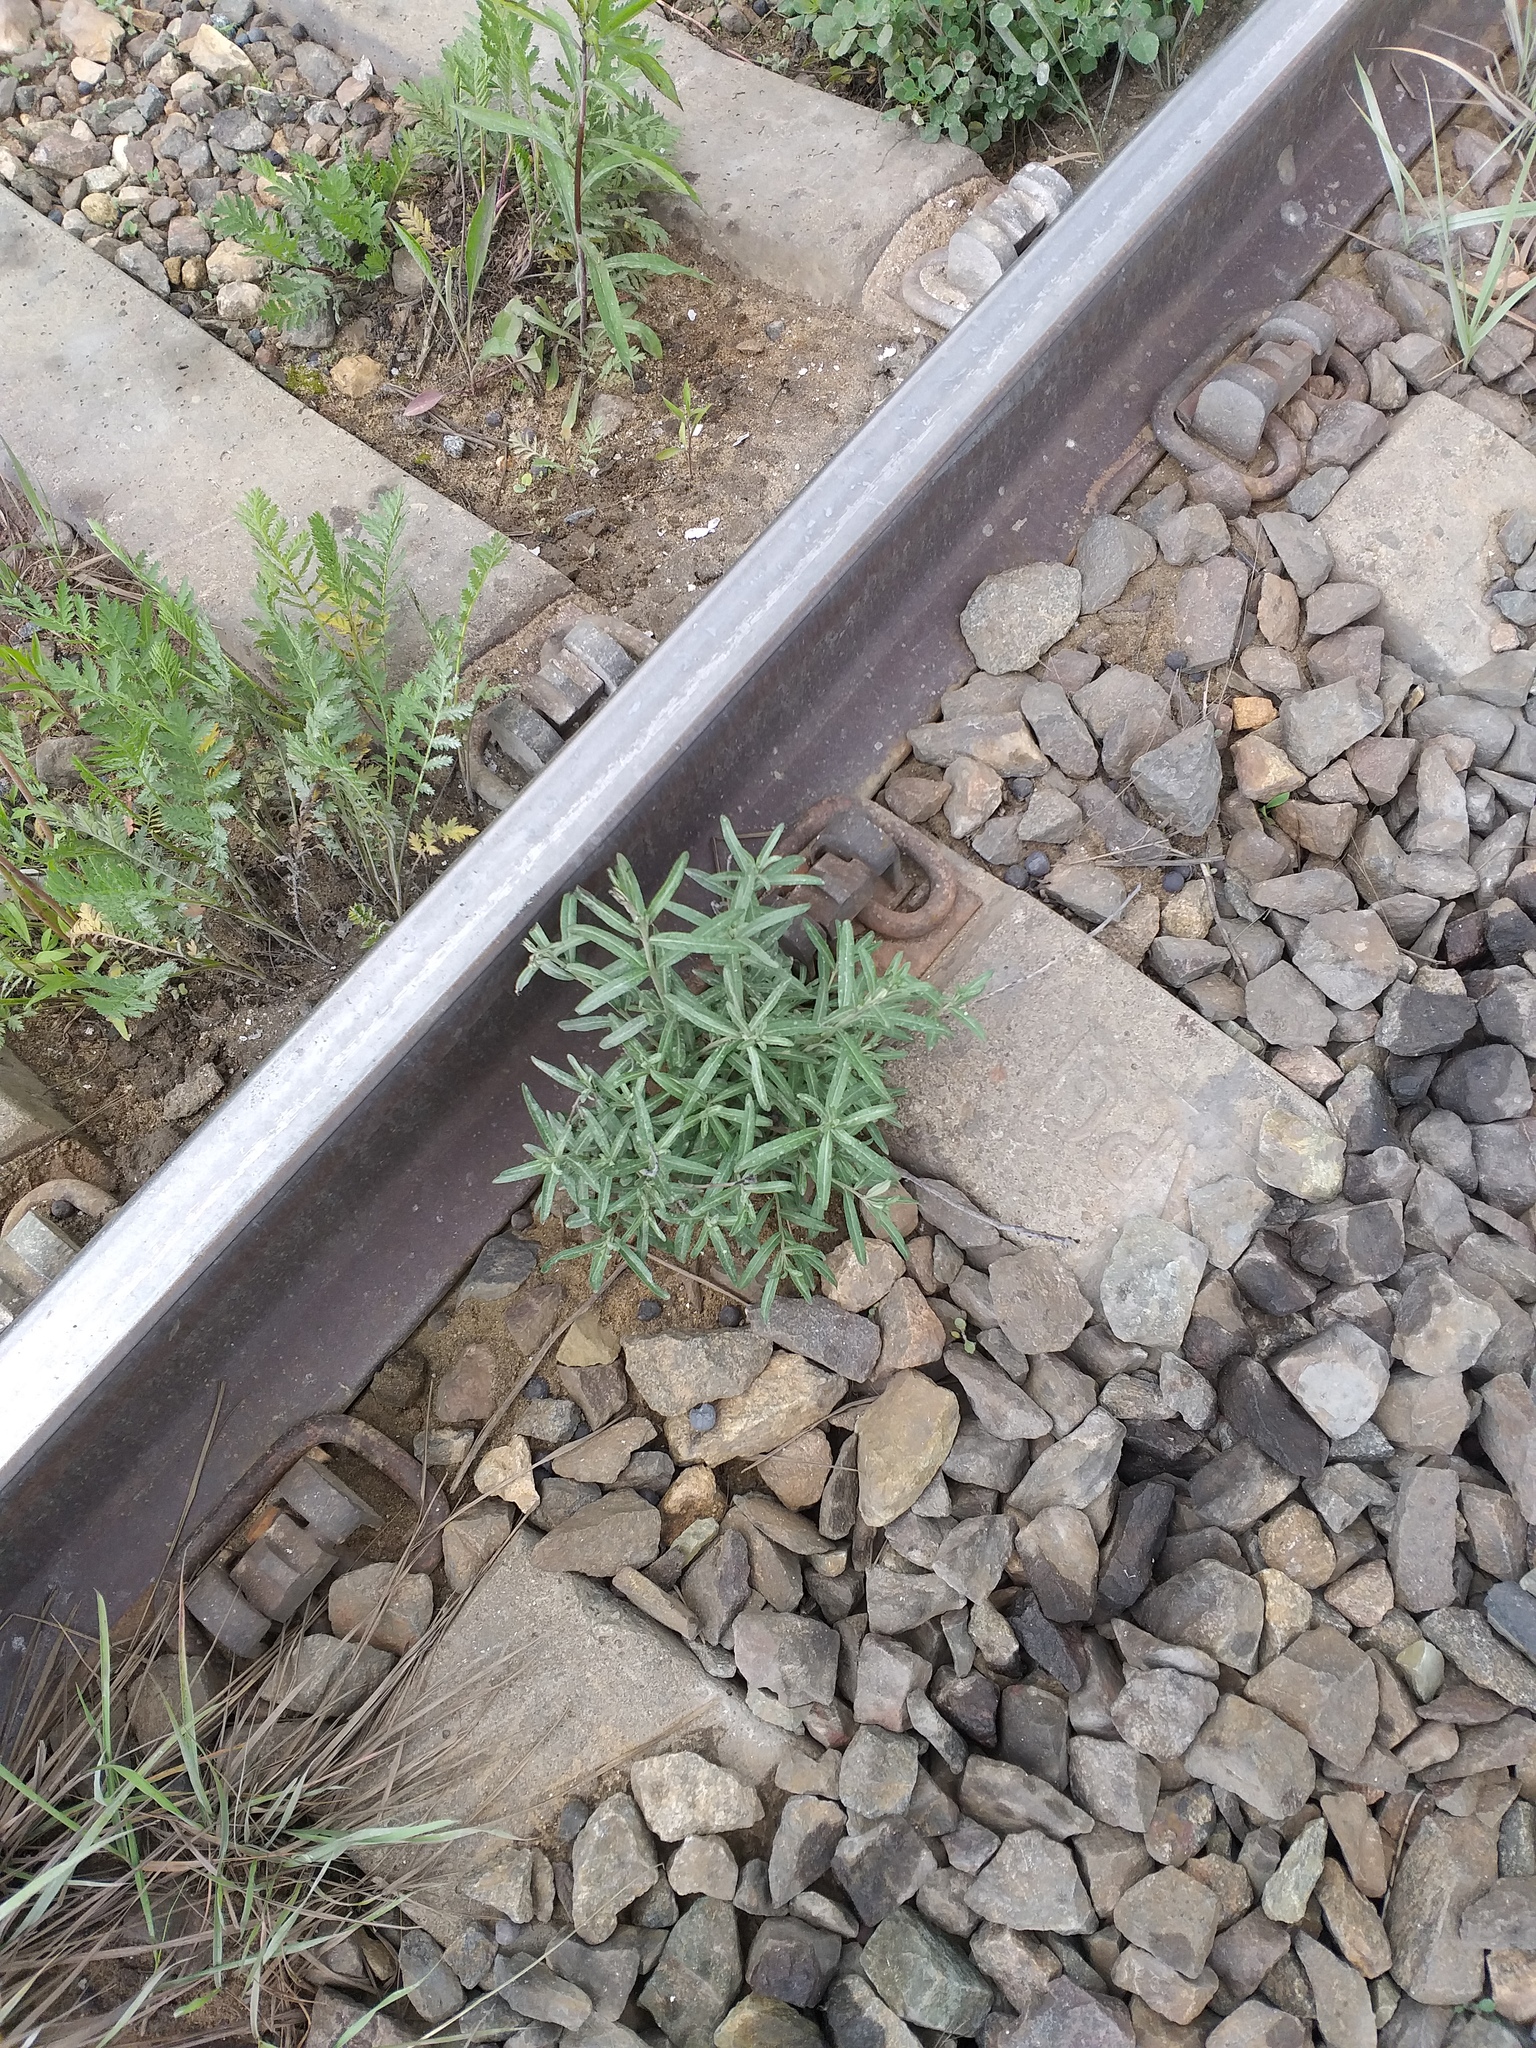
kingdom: Plantae
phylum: Tracheophyta
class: Magnoliopsida
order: Rosales
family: Elaeagnaceae
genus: Hippophae
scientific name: Hippophae rhamnoides
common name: Sea-buckthorn
